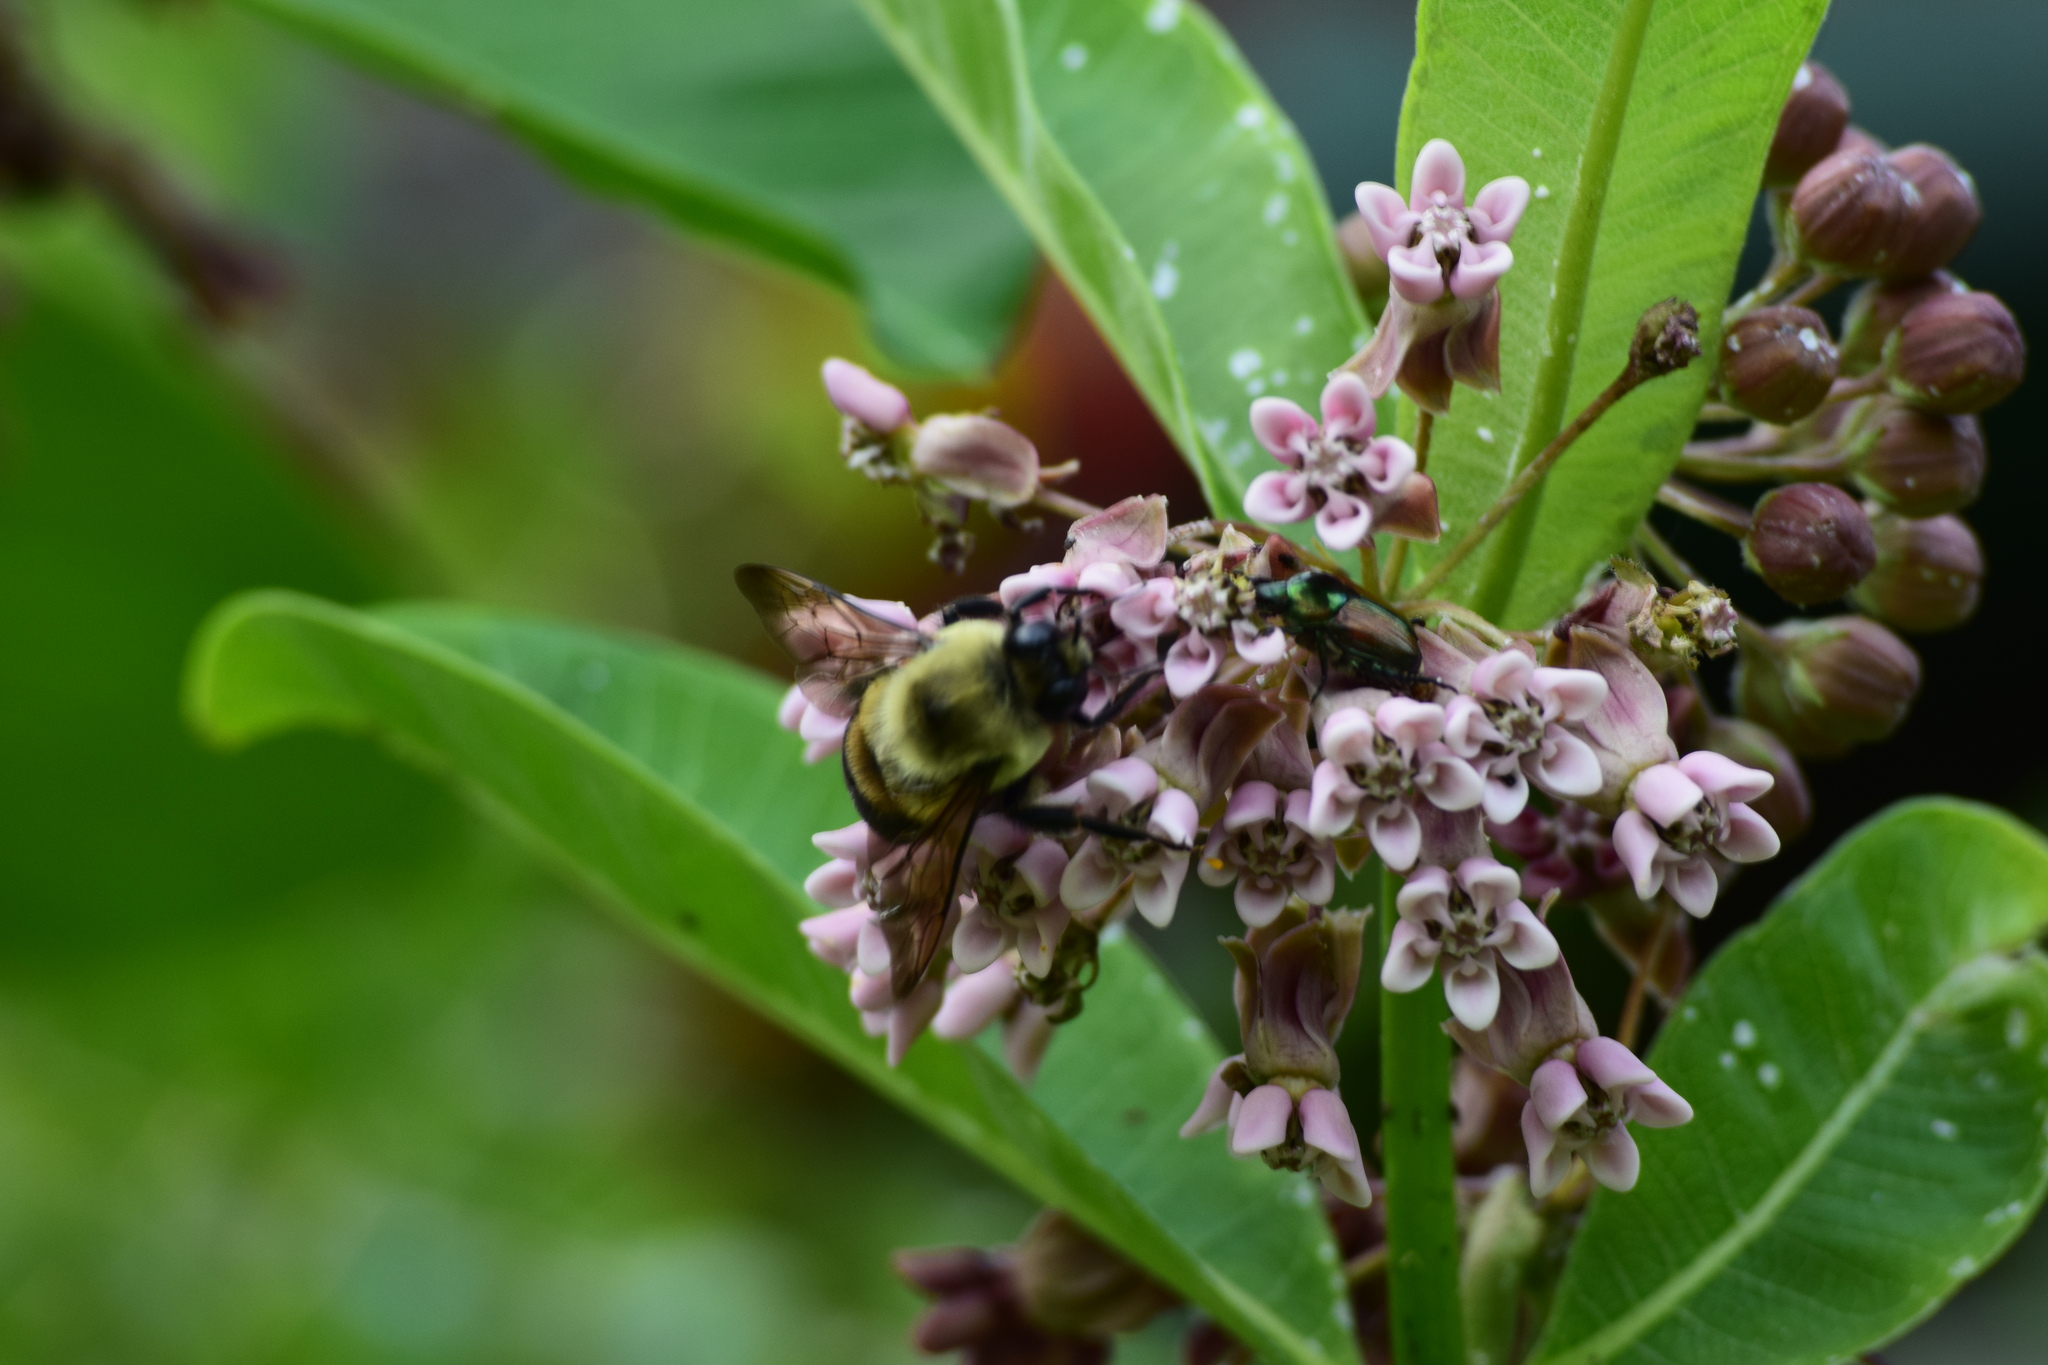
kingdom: Animalia
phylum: Arthropoda
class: Insecta
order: Hymenoptera
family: Apidae
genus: Bombus
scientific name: Bombus griseocollis
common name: Brown-belted bumble bee
